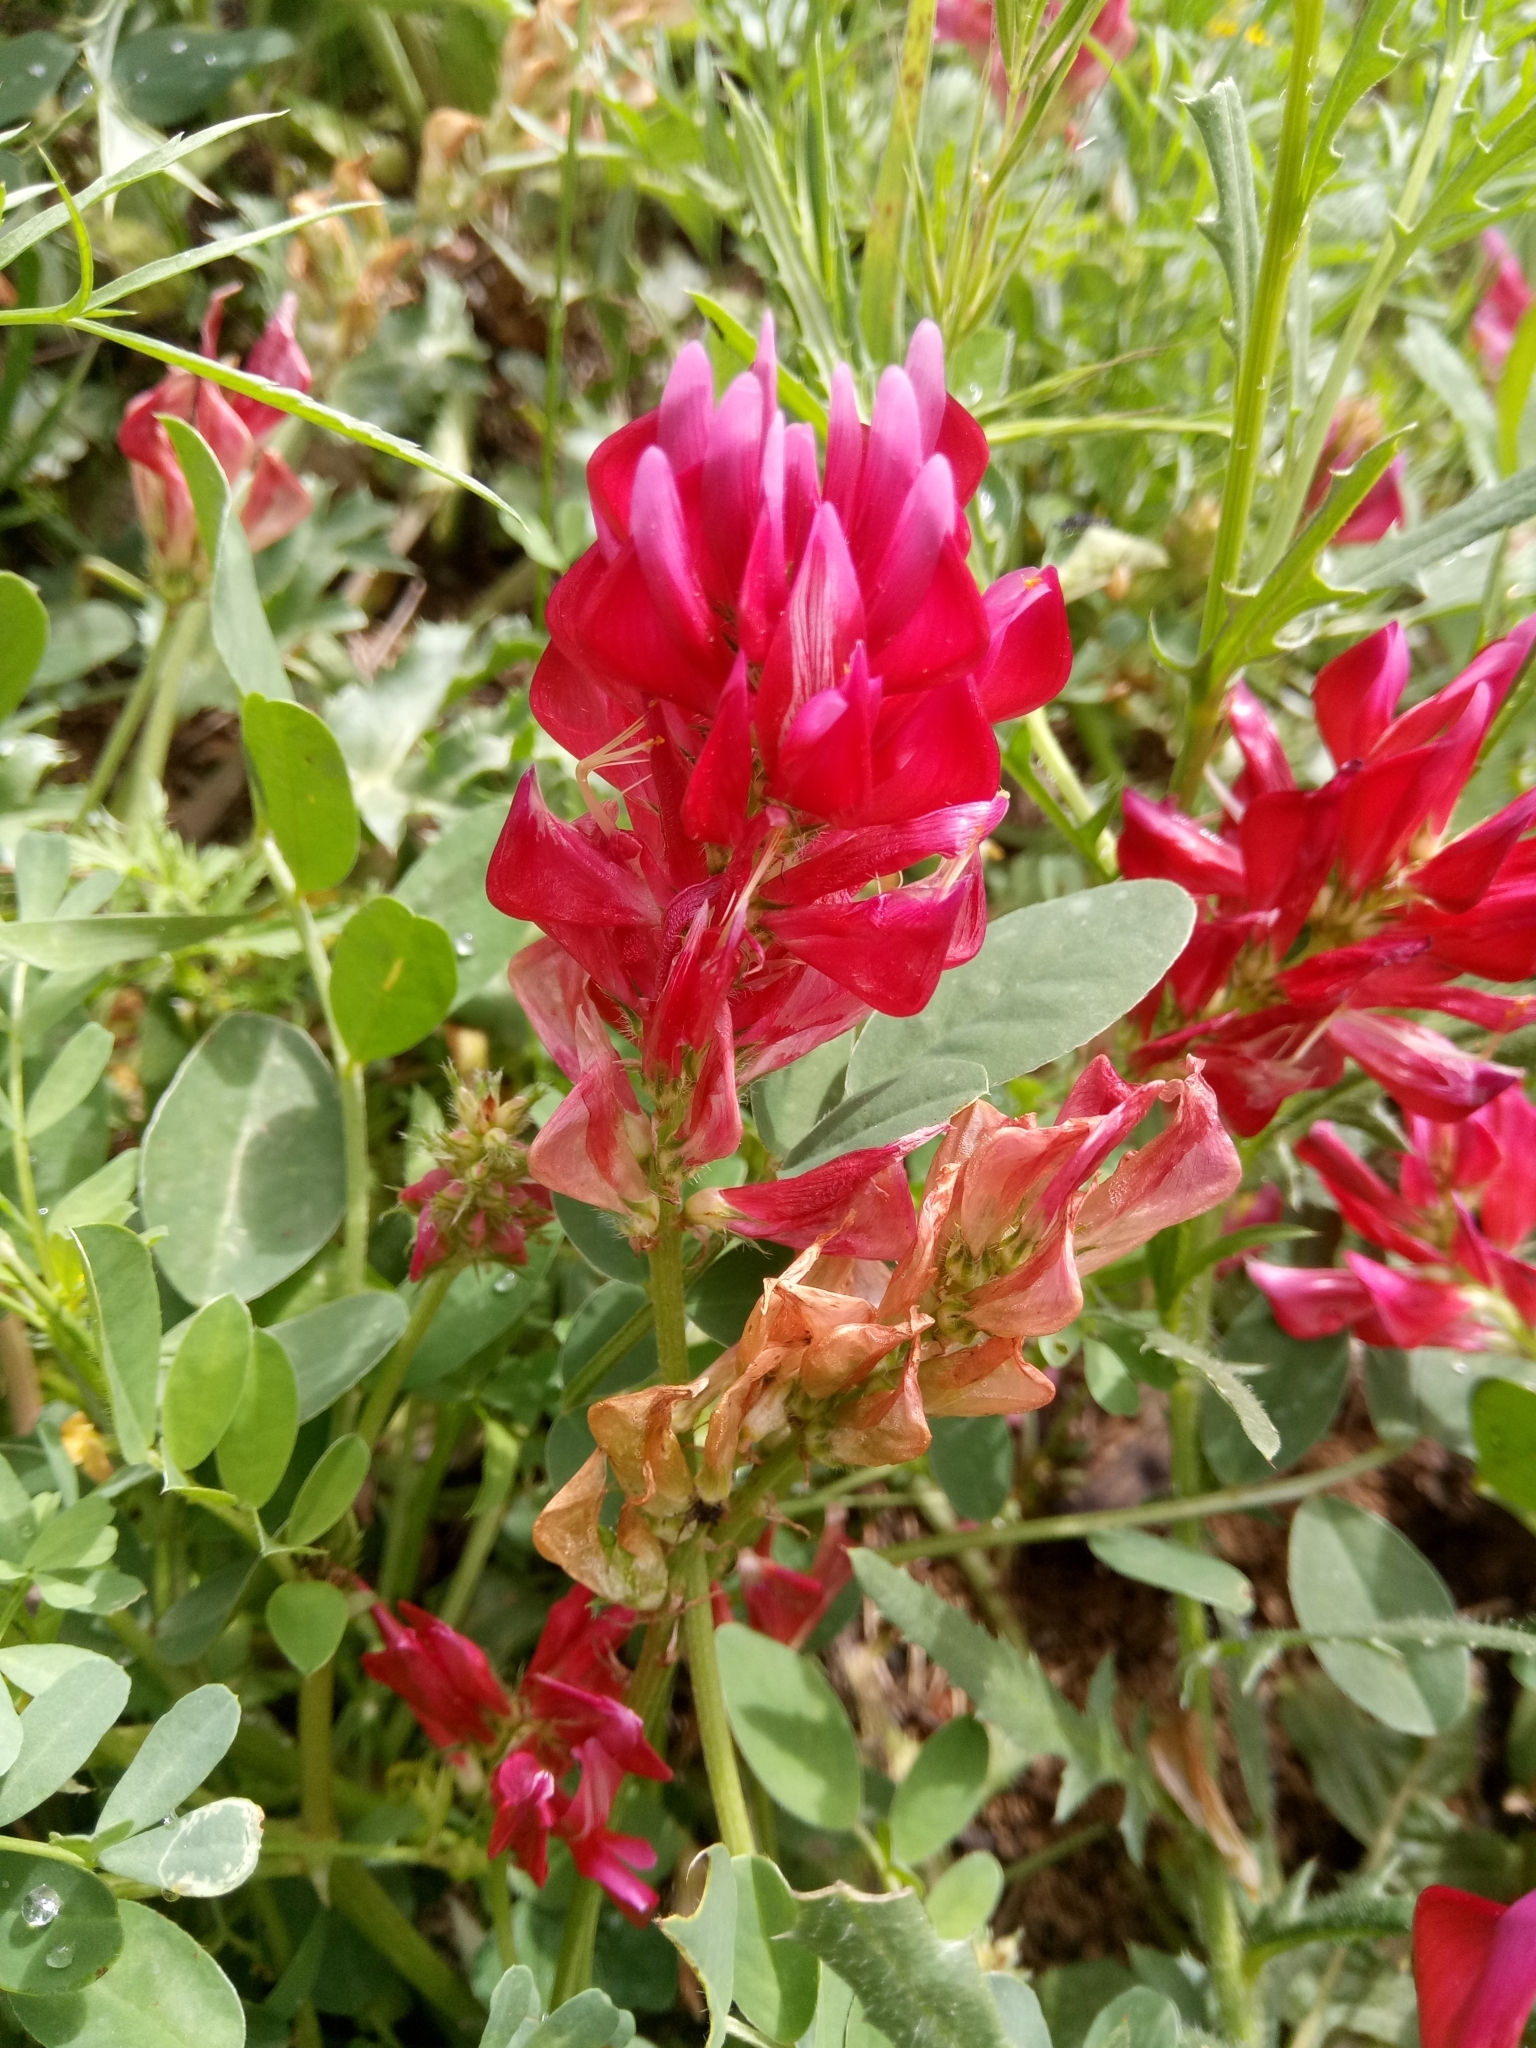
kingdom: Plantae
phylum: Tracheophyta
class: Magnoliopsida
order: Fabales
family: Fabaceae
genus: Sulla
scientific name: Sulla coronaria
